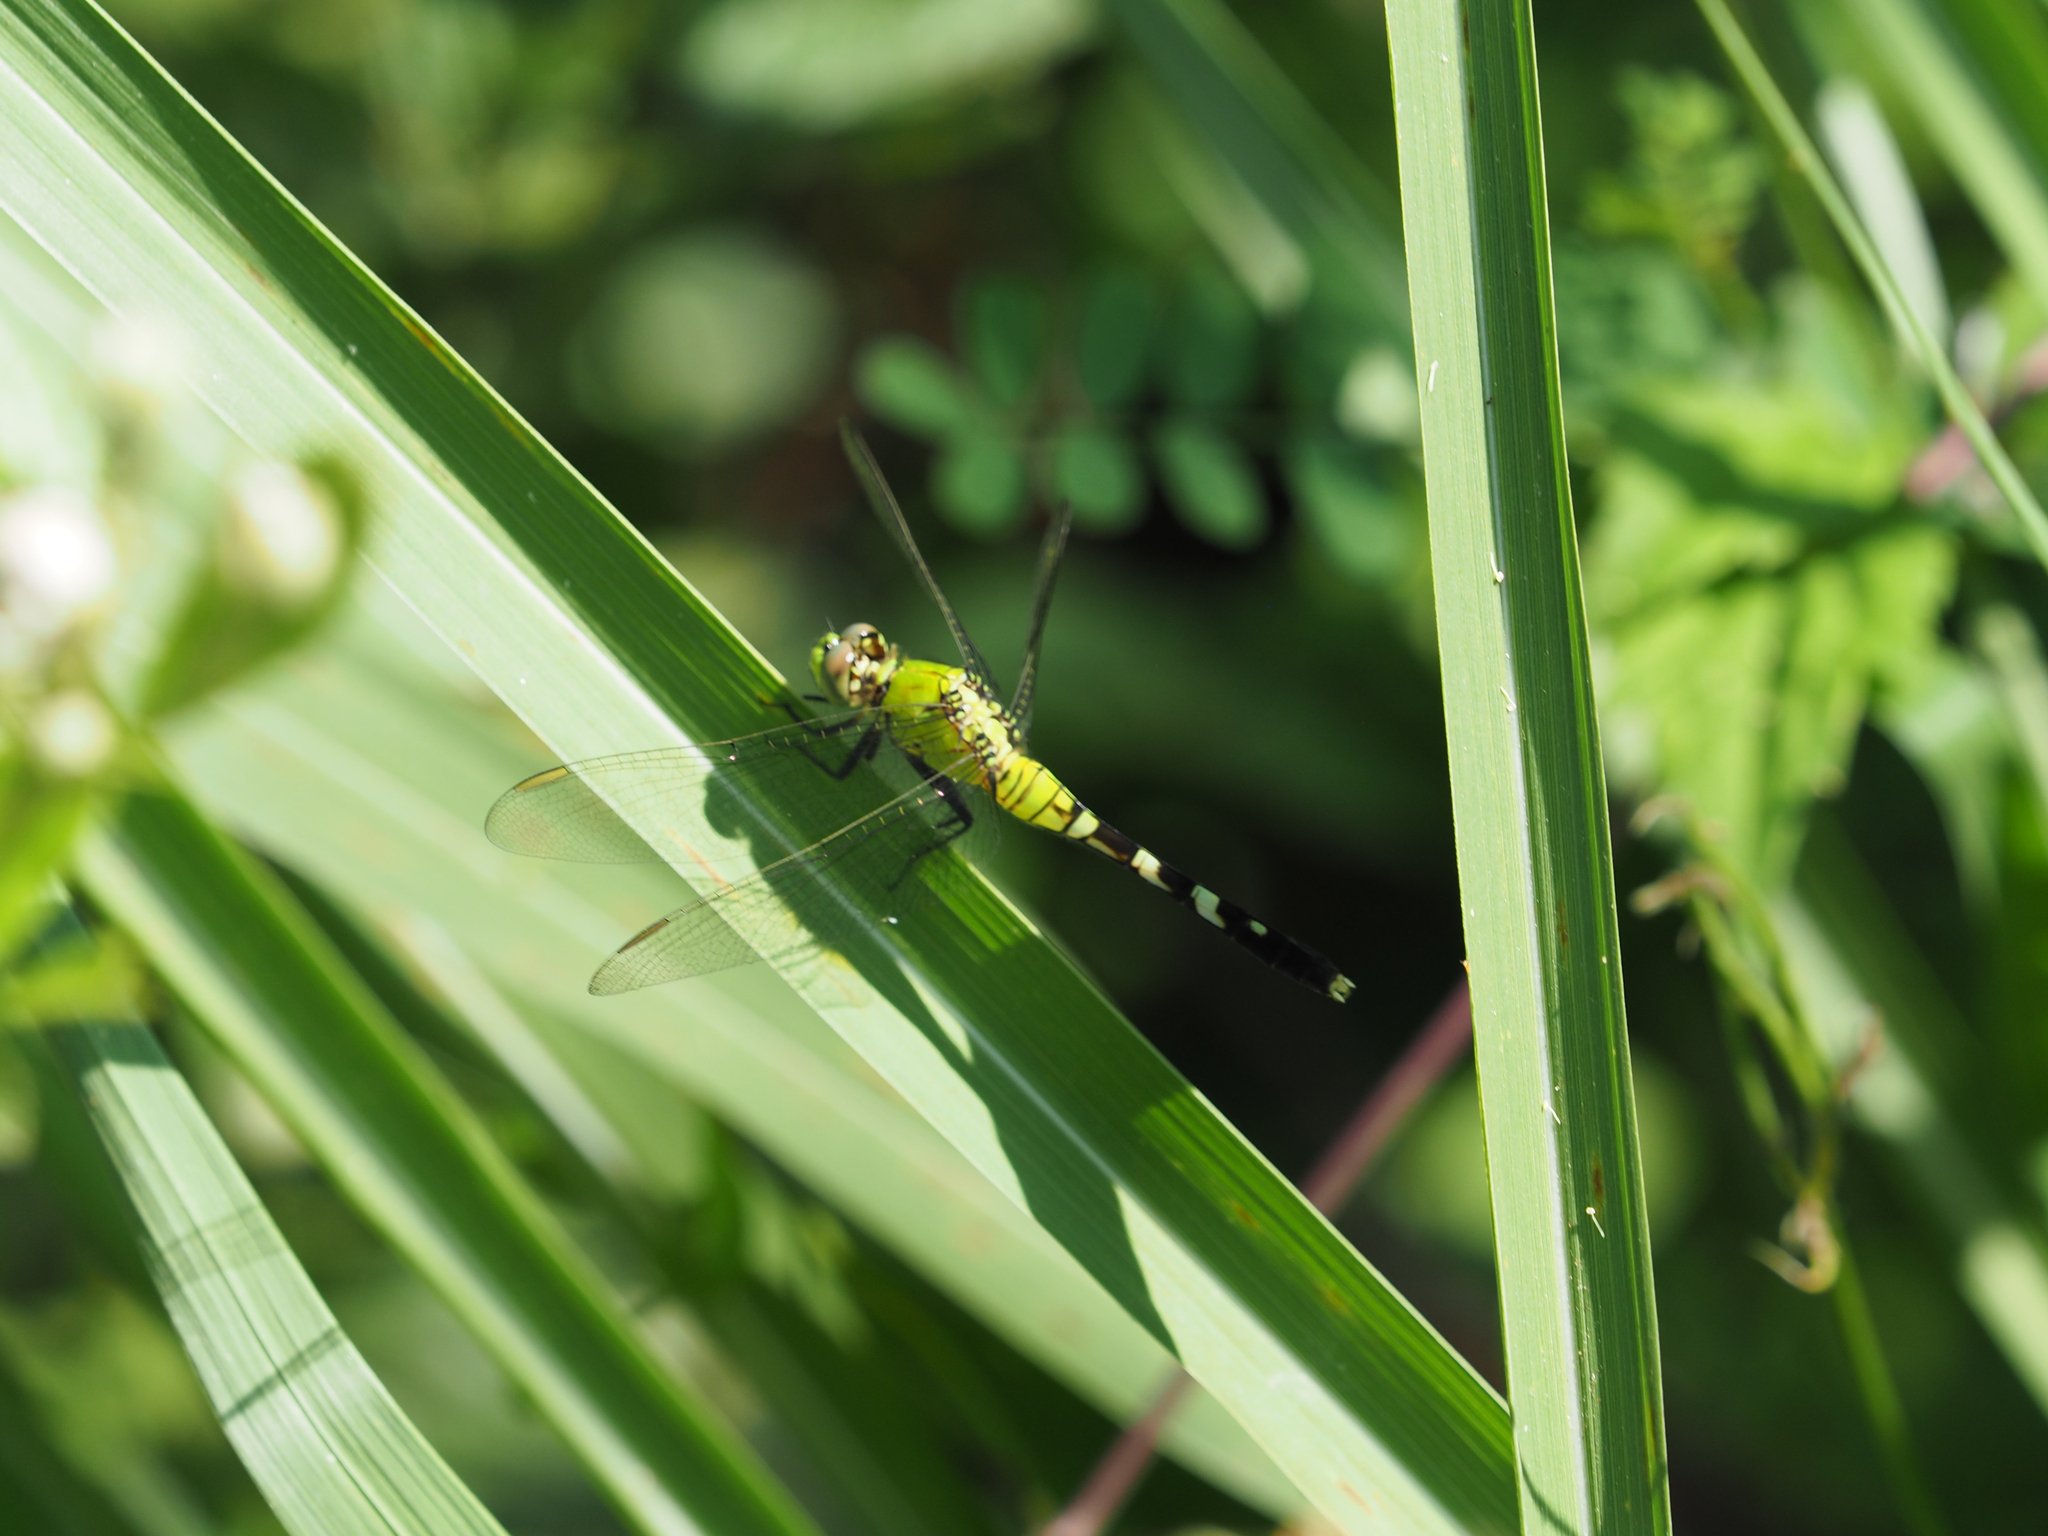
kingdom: Animalia
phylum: Arthropoda
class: Insecta
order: Odonata
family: Libellulidae
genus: Erythemis
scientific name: Erythemis simplicicollis
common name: Eastern pondhawk
